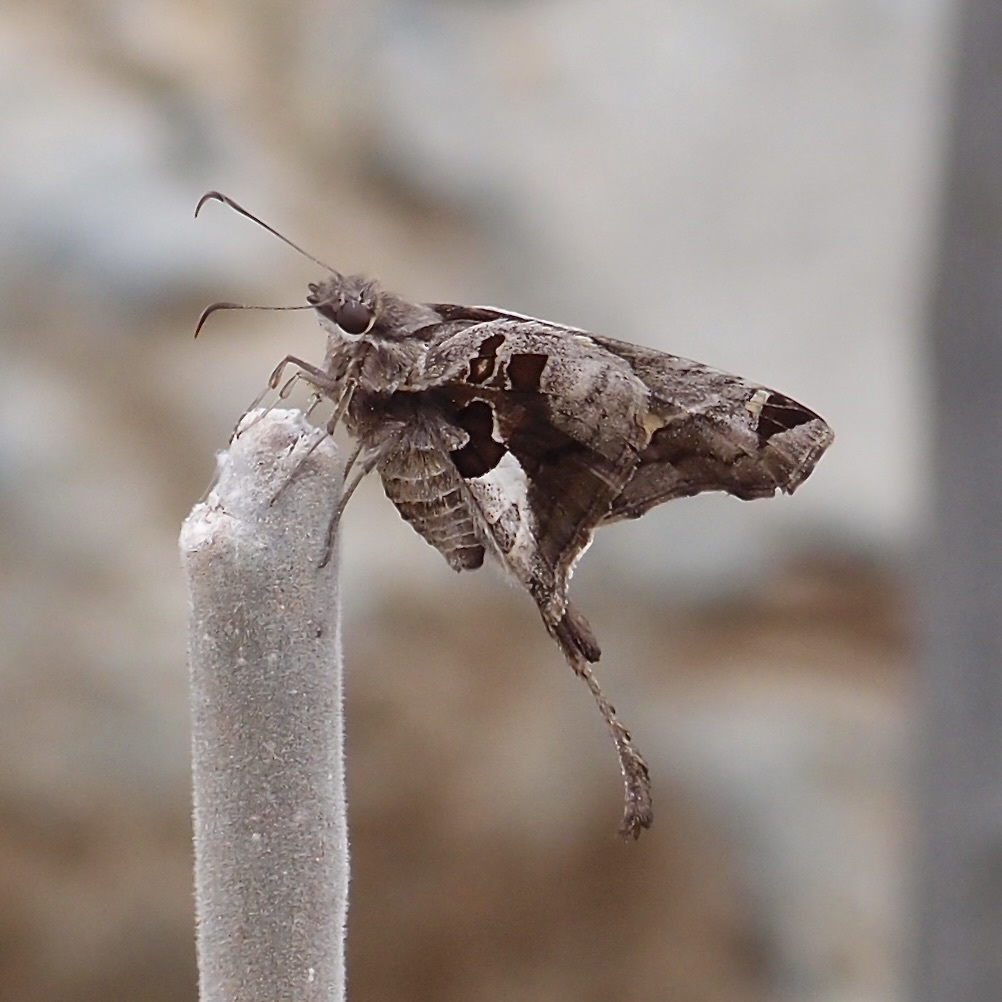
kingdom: Animalia
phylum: Arthropoda
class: Insecta
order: Lepidoptera
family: Hesperiidae
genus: Chioides
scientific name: Chioides zilpa
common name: Zilpa longtail
